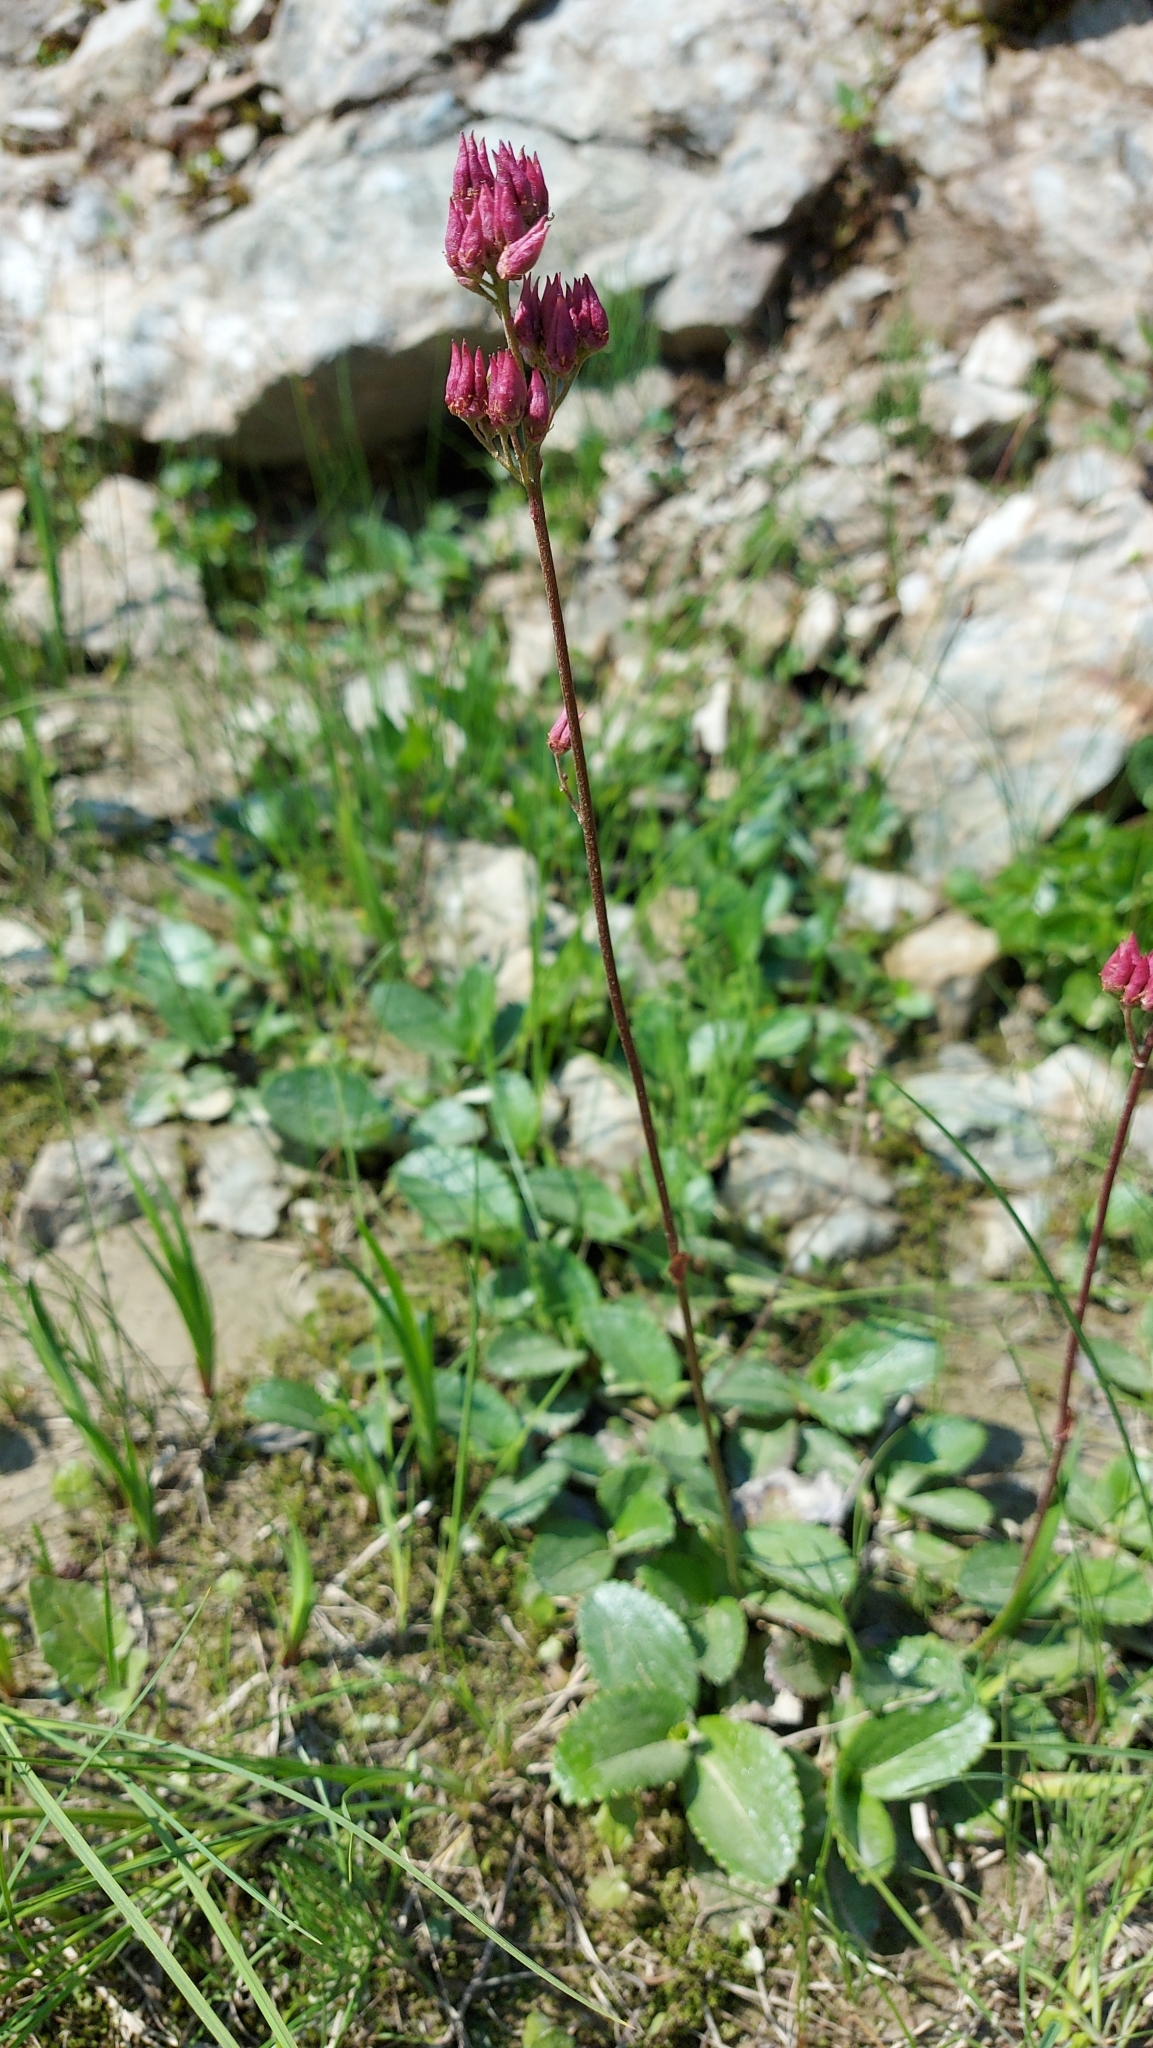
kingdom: Plantae
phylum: Tracheophyta
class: Magnoliopsida
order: Saxifragales
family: Saxifragaceae
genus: Leptarrhena
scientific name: Leptarrhena pyrolifolia
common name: Leatherleaf-saxifrage
